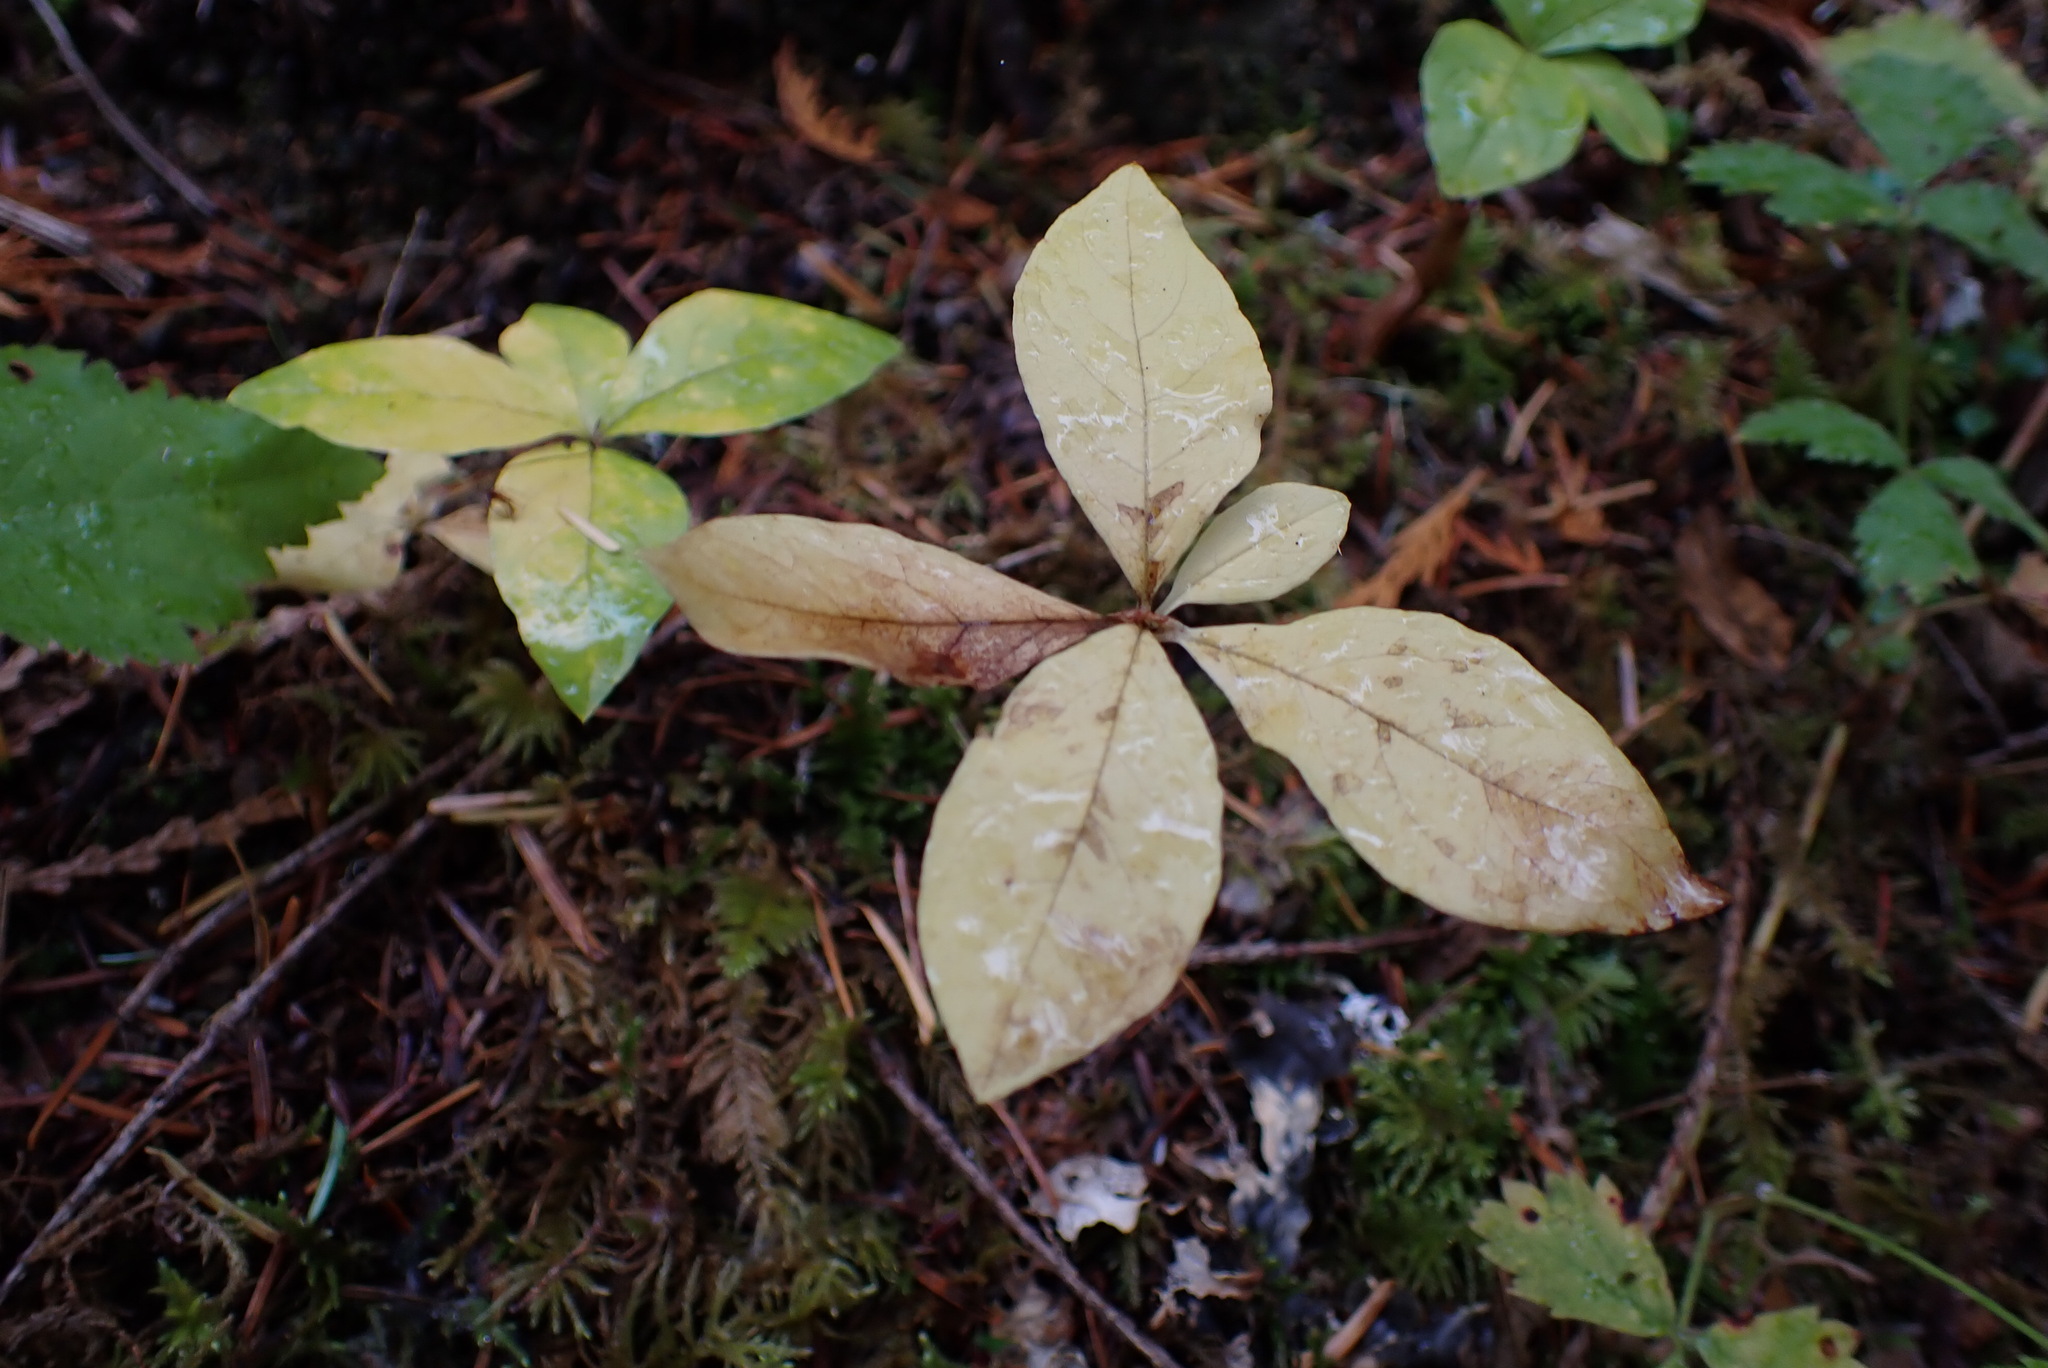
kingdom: Plantae
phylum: Tracheophyta
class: Magnoliopsida
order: Ericales
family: Primulaceae
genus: Lysimachia
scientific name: Lysimachia latifolia
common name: Pacific starflower
